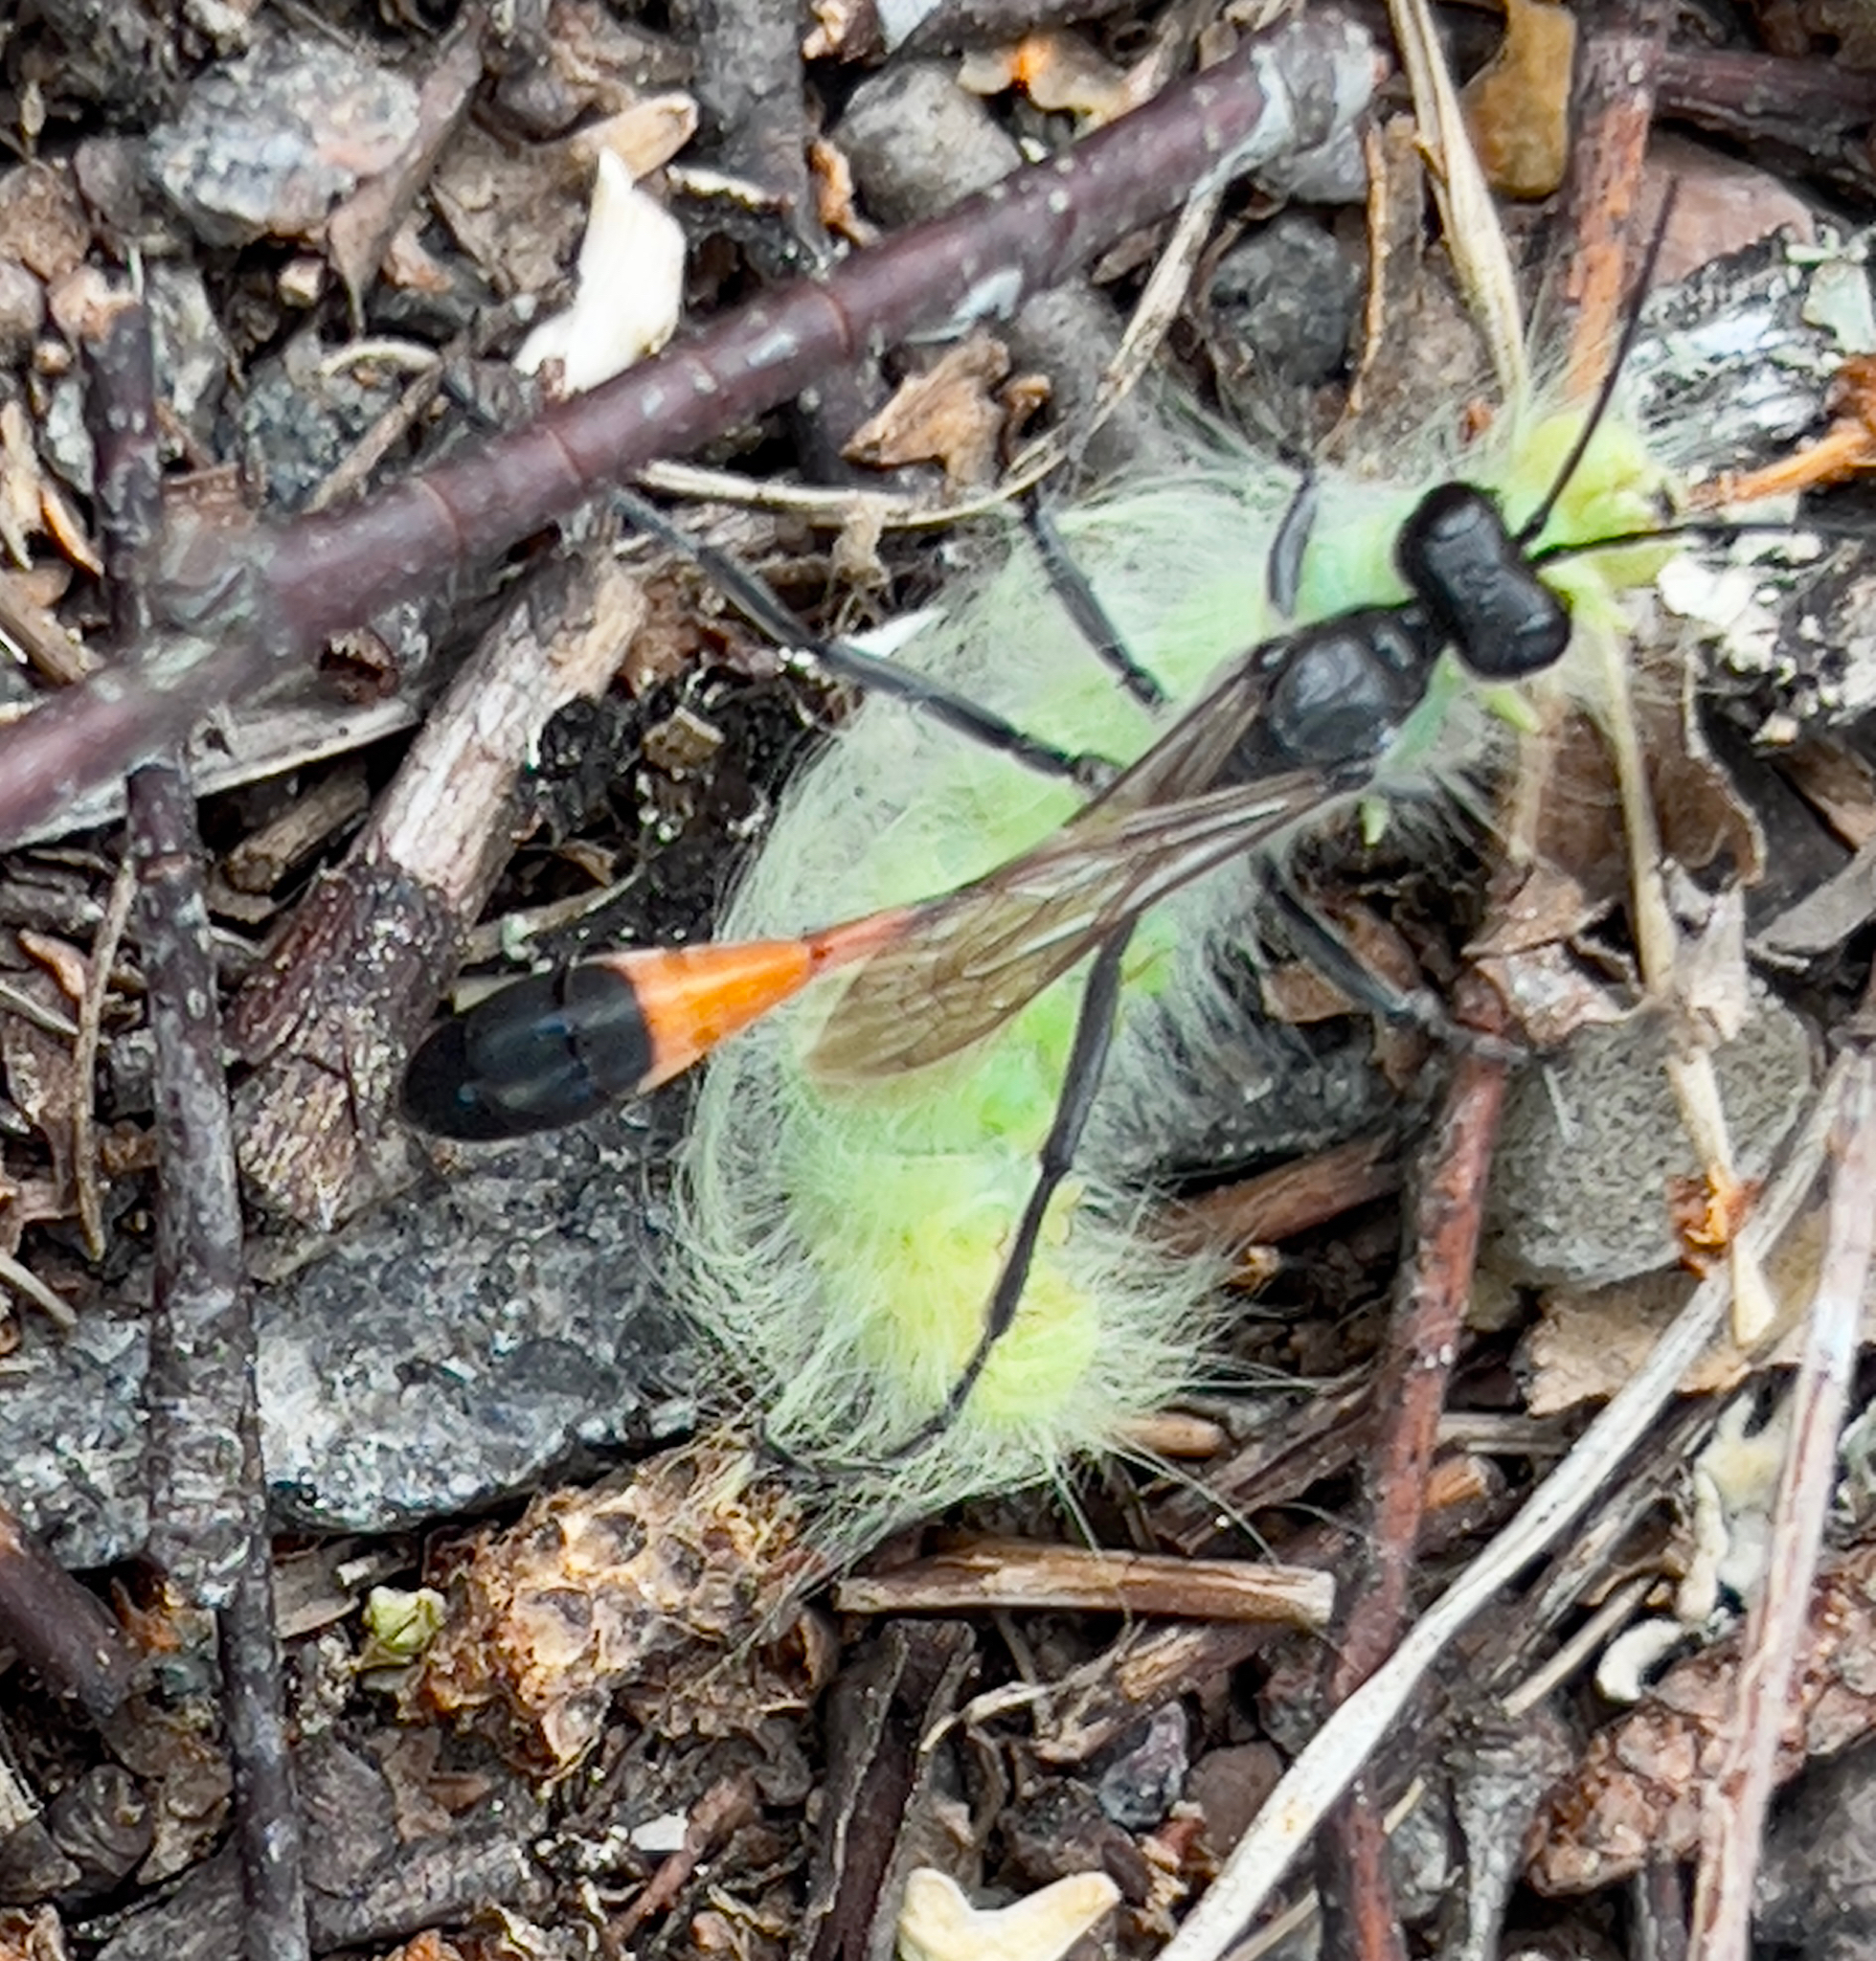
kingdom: Animalia
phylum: Arthropoda
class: Insecta
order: Hymenoptera
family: Sphecidae
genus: Ammophila
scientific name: Ammophila sabulosa
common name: Red banded sand wasp
